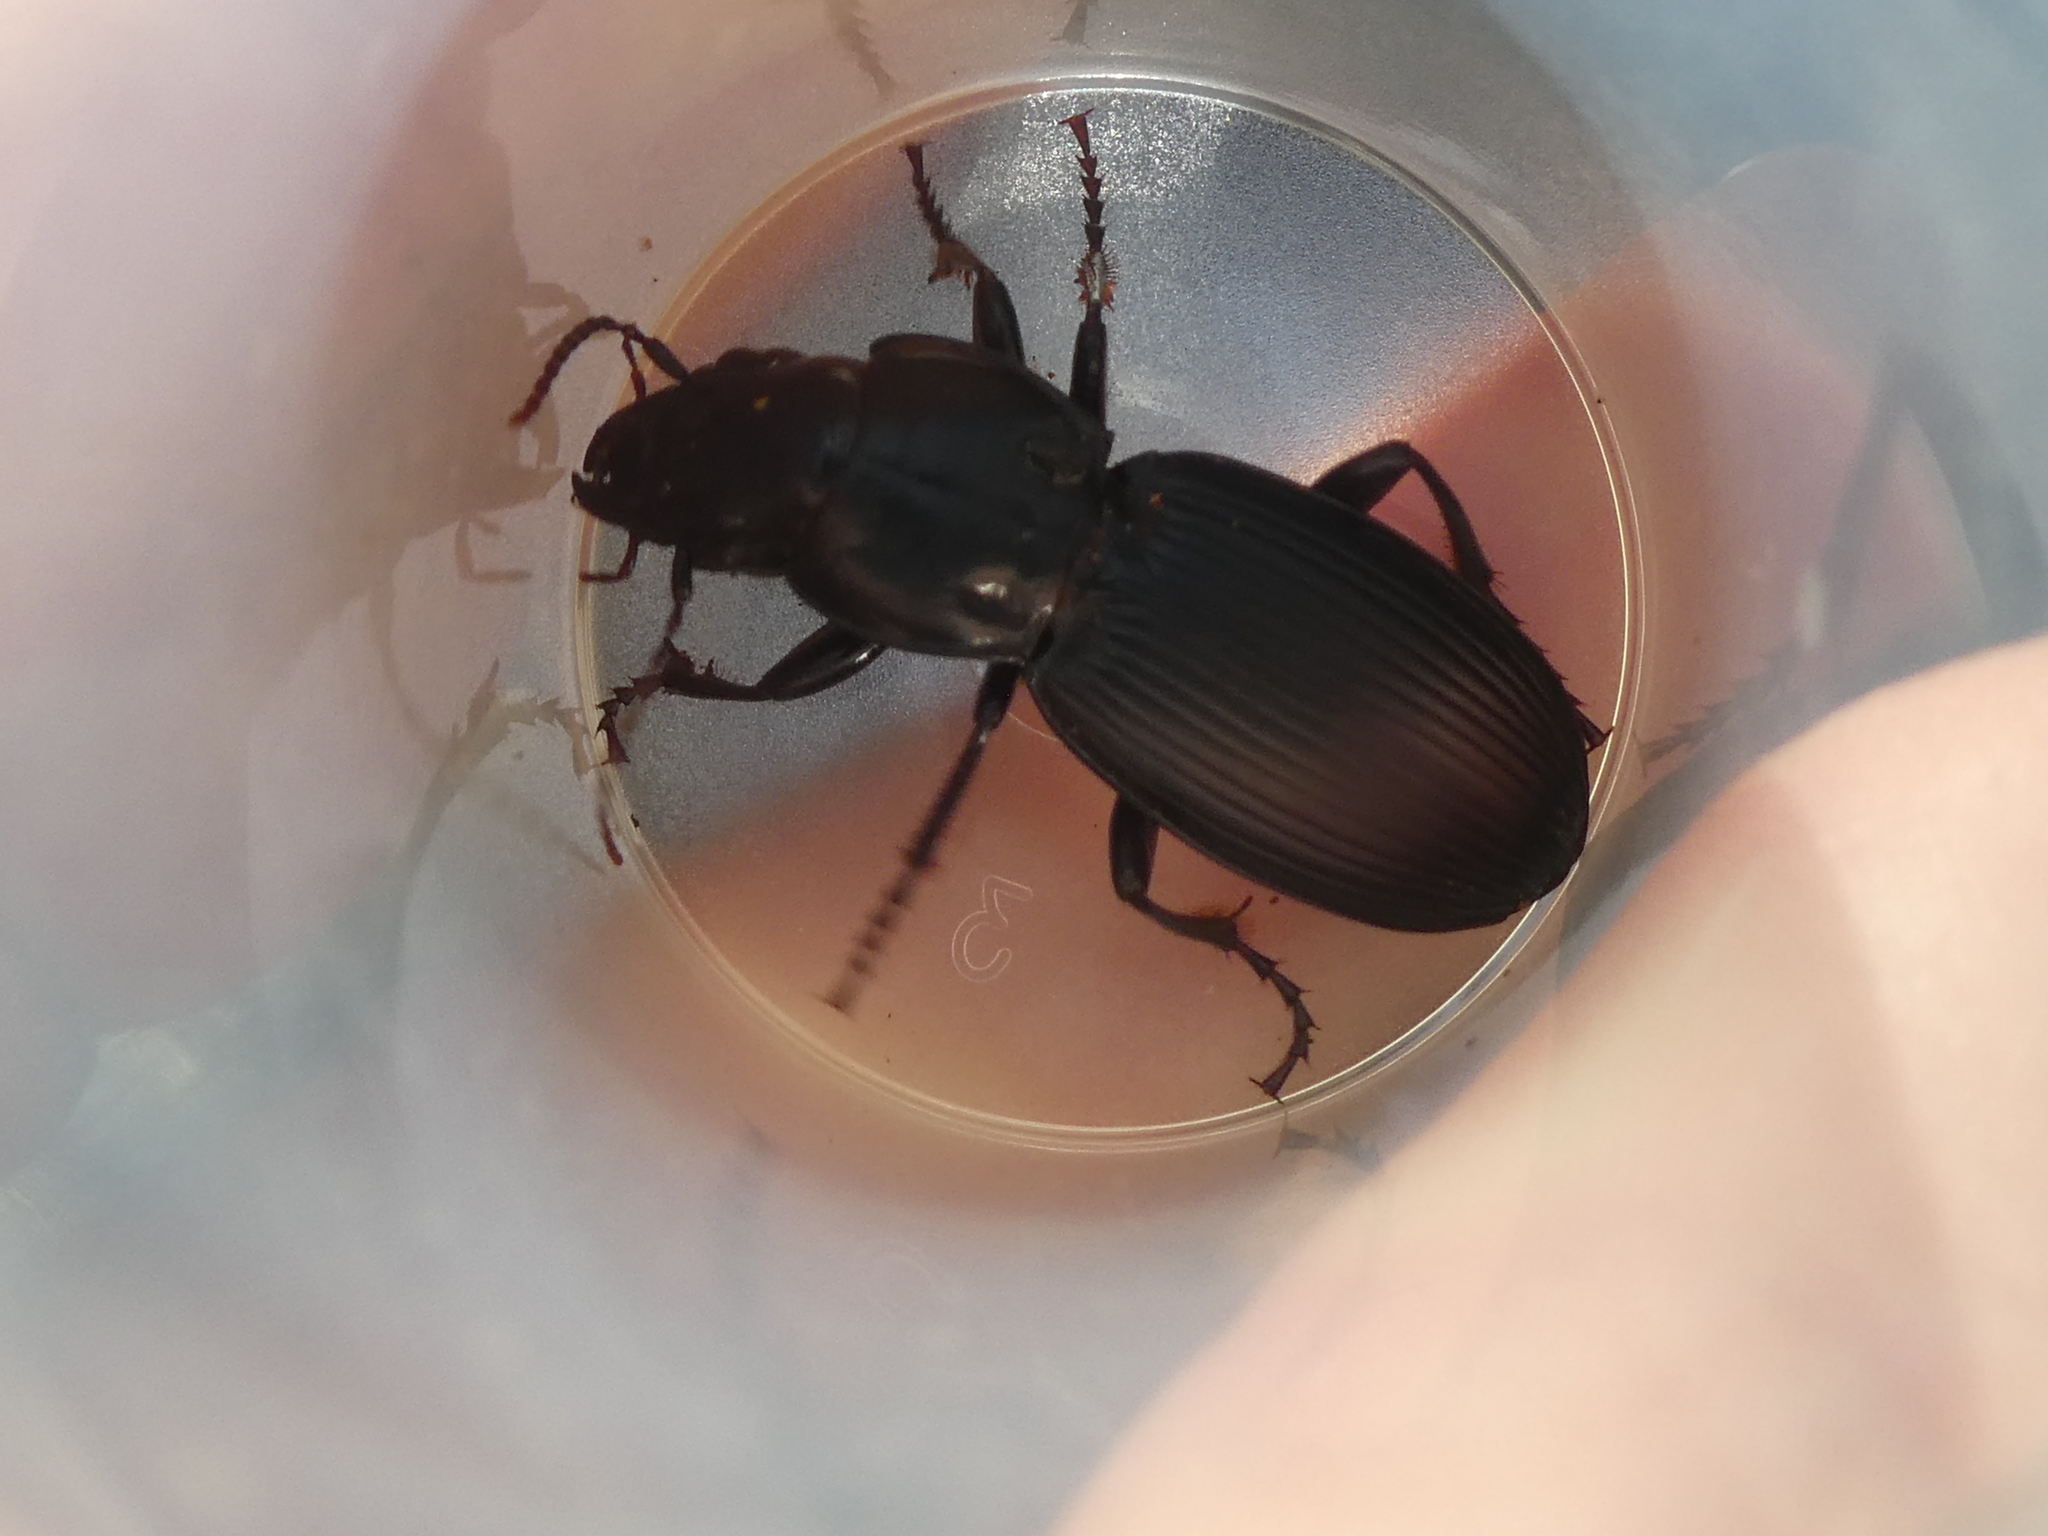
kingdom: Animalia
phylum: Arthropoda
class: Insecta
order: Coleoptera
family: Carabidae
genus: Plocamostethus
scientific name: Plocamostethus planiusculus
